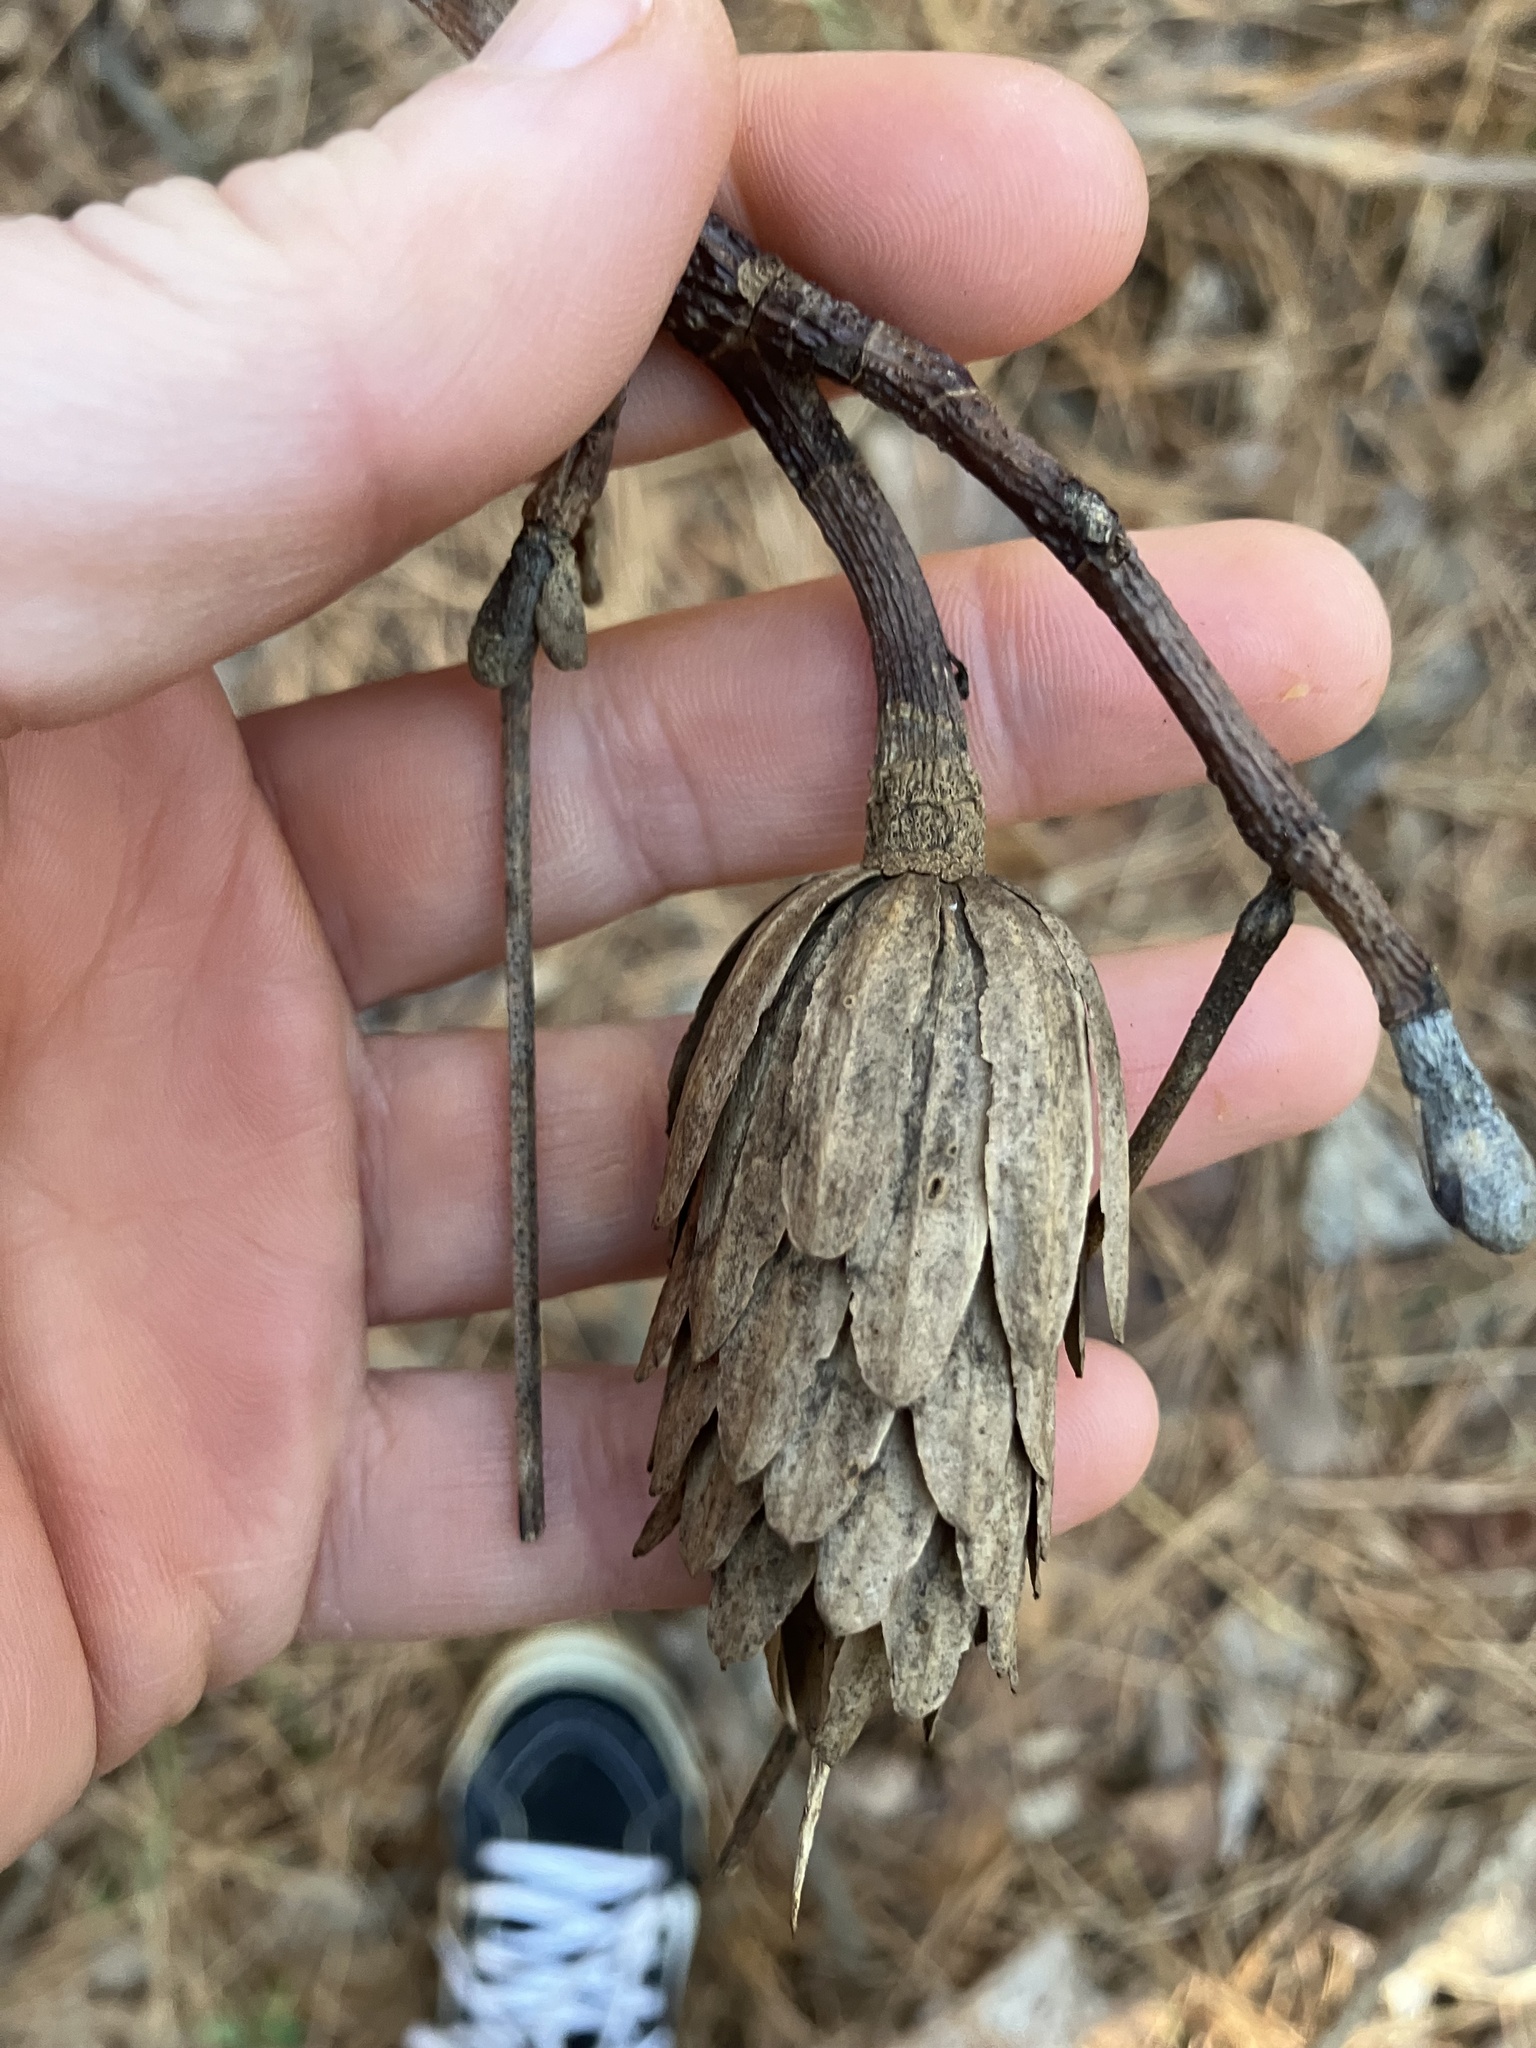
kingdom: Plantae
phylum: Tracheophyta
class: Magnoliopsida
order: Magnoliales
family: Magnoliaceae
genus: Liriodendron
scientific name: Liriodendron tulipifera
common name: Tulip tree
